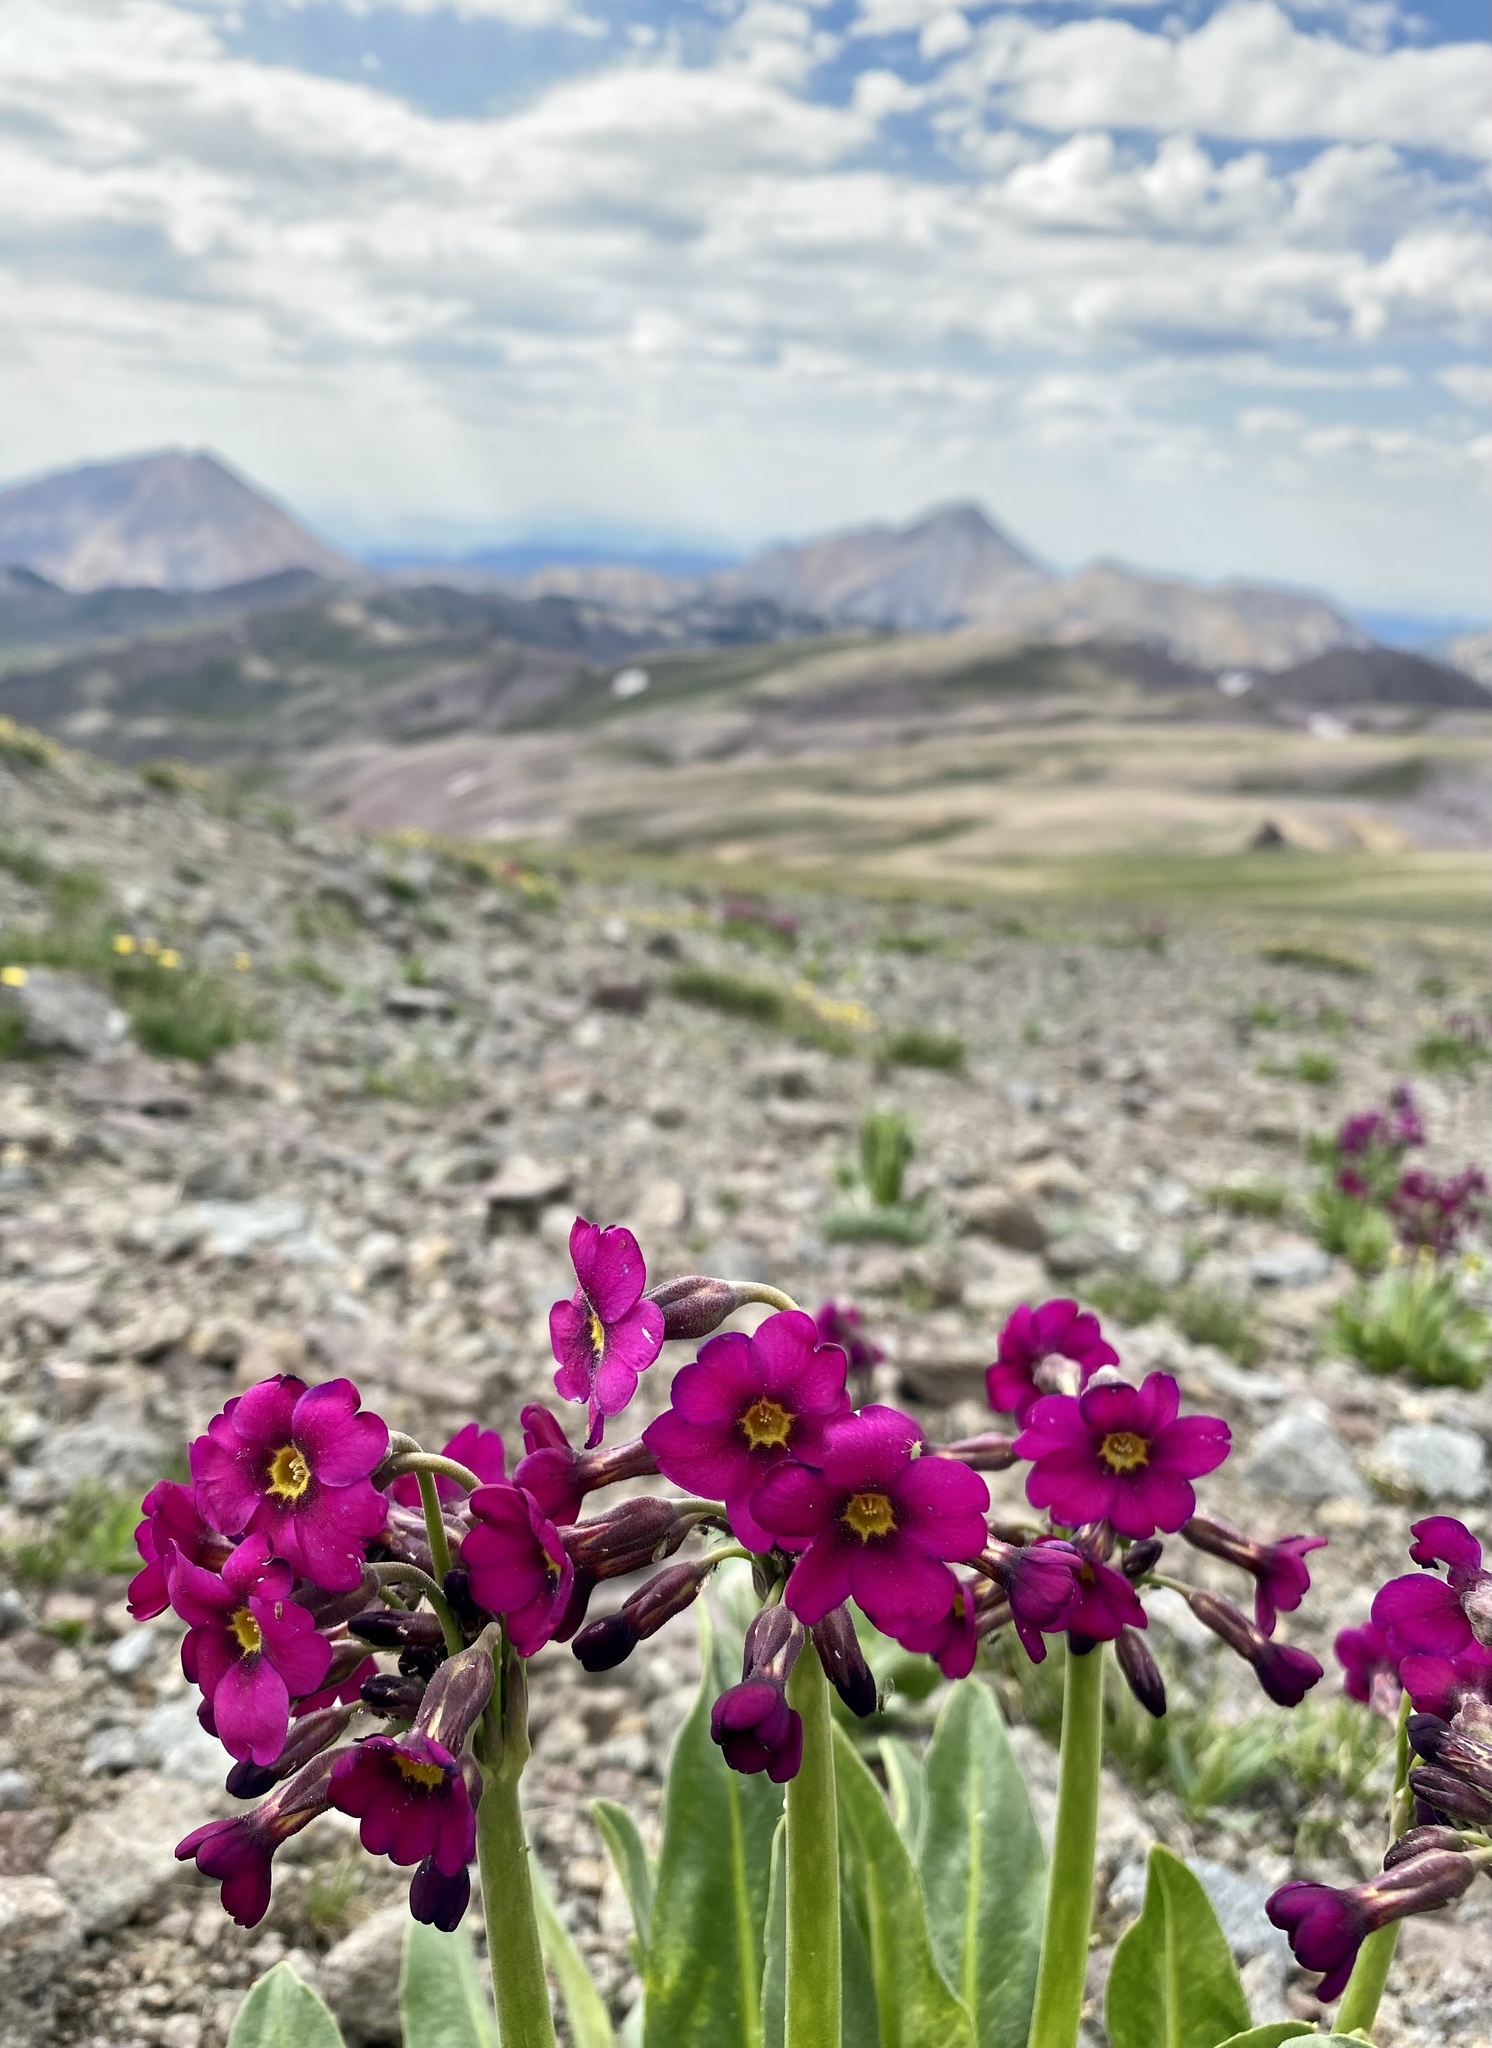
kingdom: Plantae
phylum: Tracheophyta
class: Magnoliopsida
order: Ericales
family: Primulaceae
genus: Primula
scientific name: Primula parryi
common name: Parry's primrose
